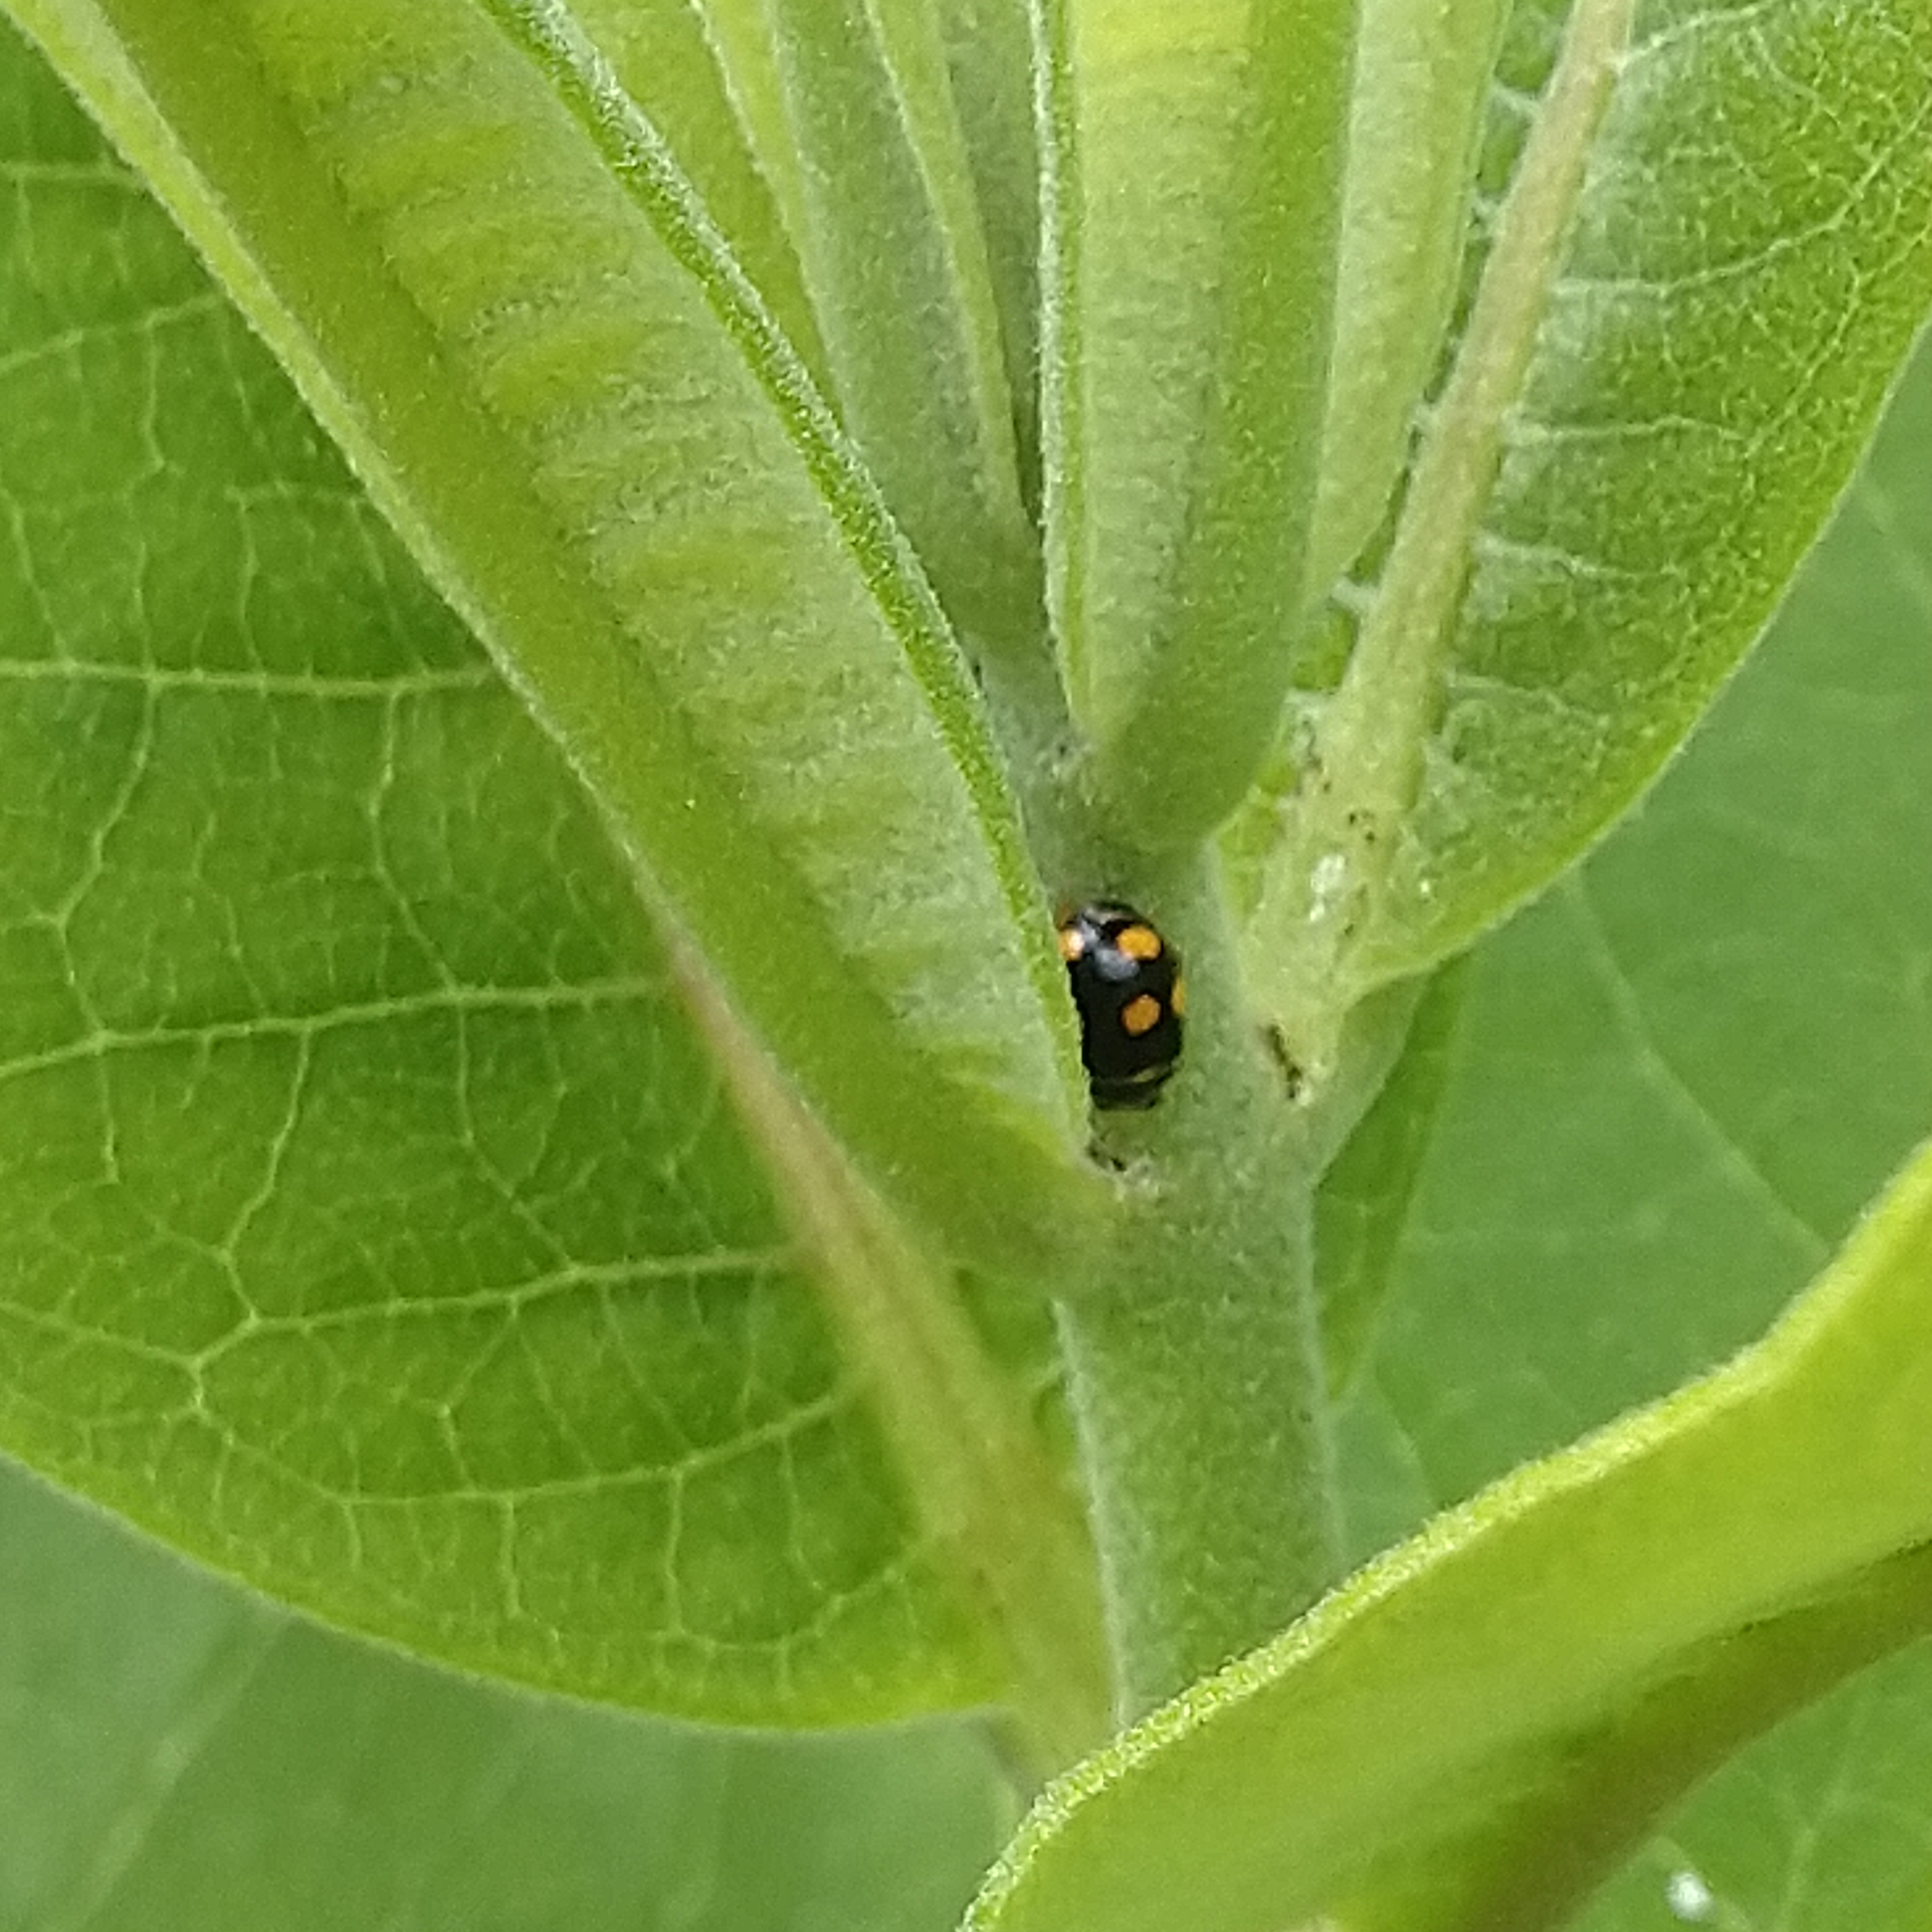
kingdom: Animalia
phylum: Arthropoda
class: Insecta
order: Coleoptera
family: Coccinellidae
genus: Brachiacantha
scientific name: Brachiacantha ursina
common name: Ursine spurleg lady beetle
